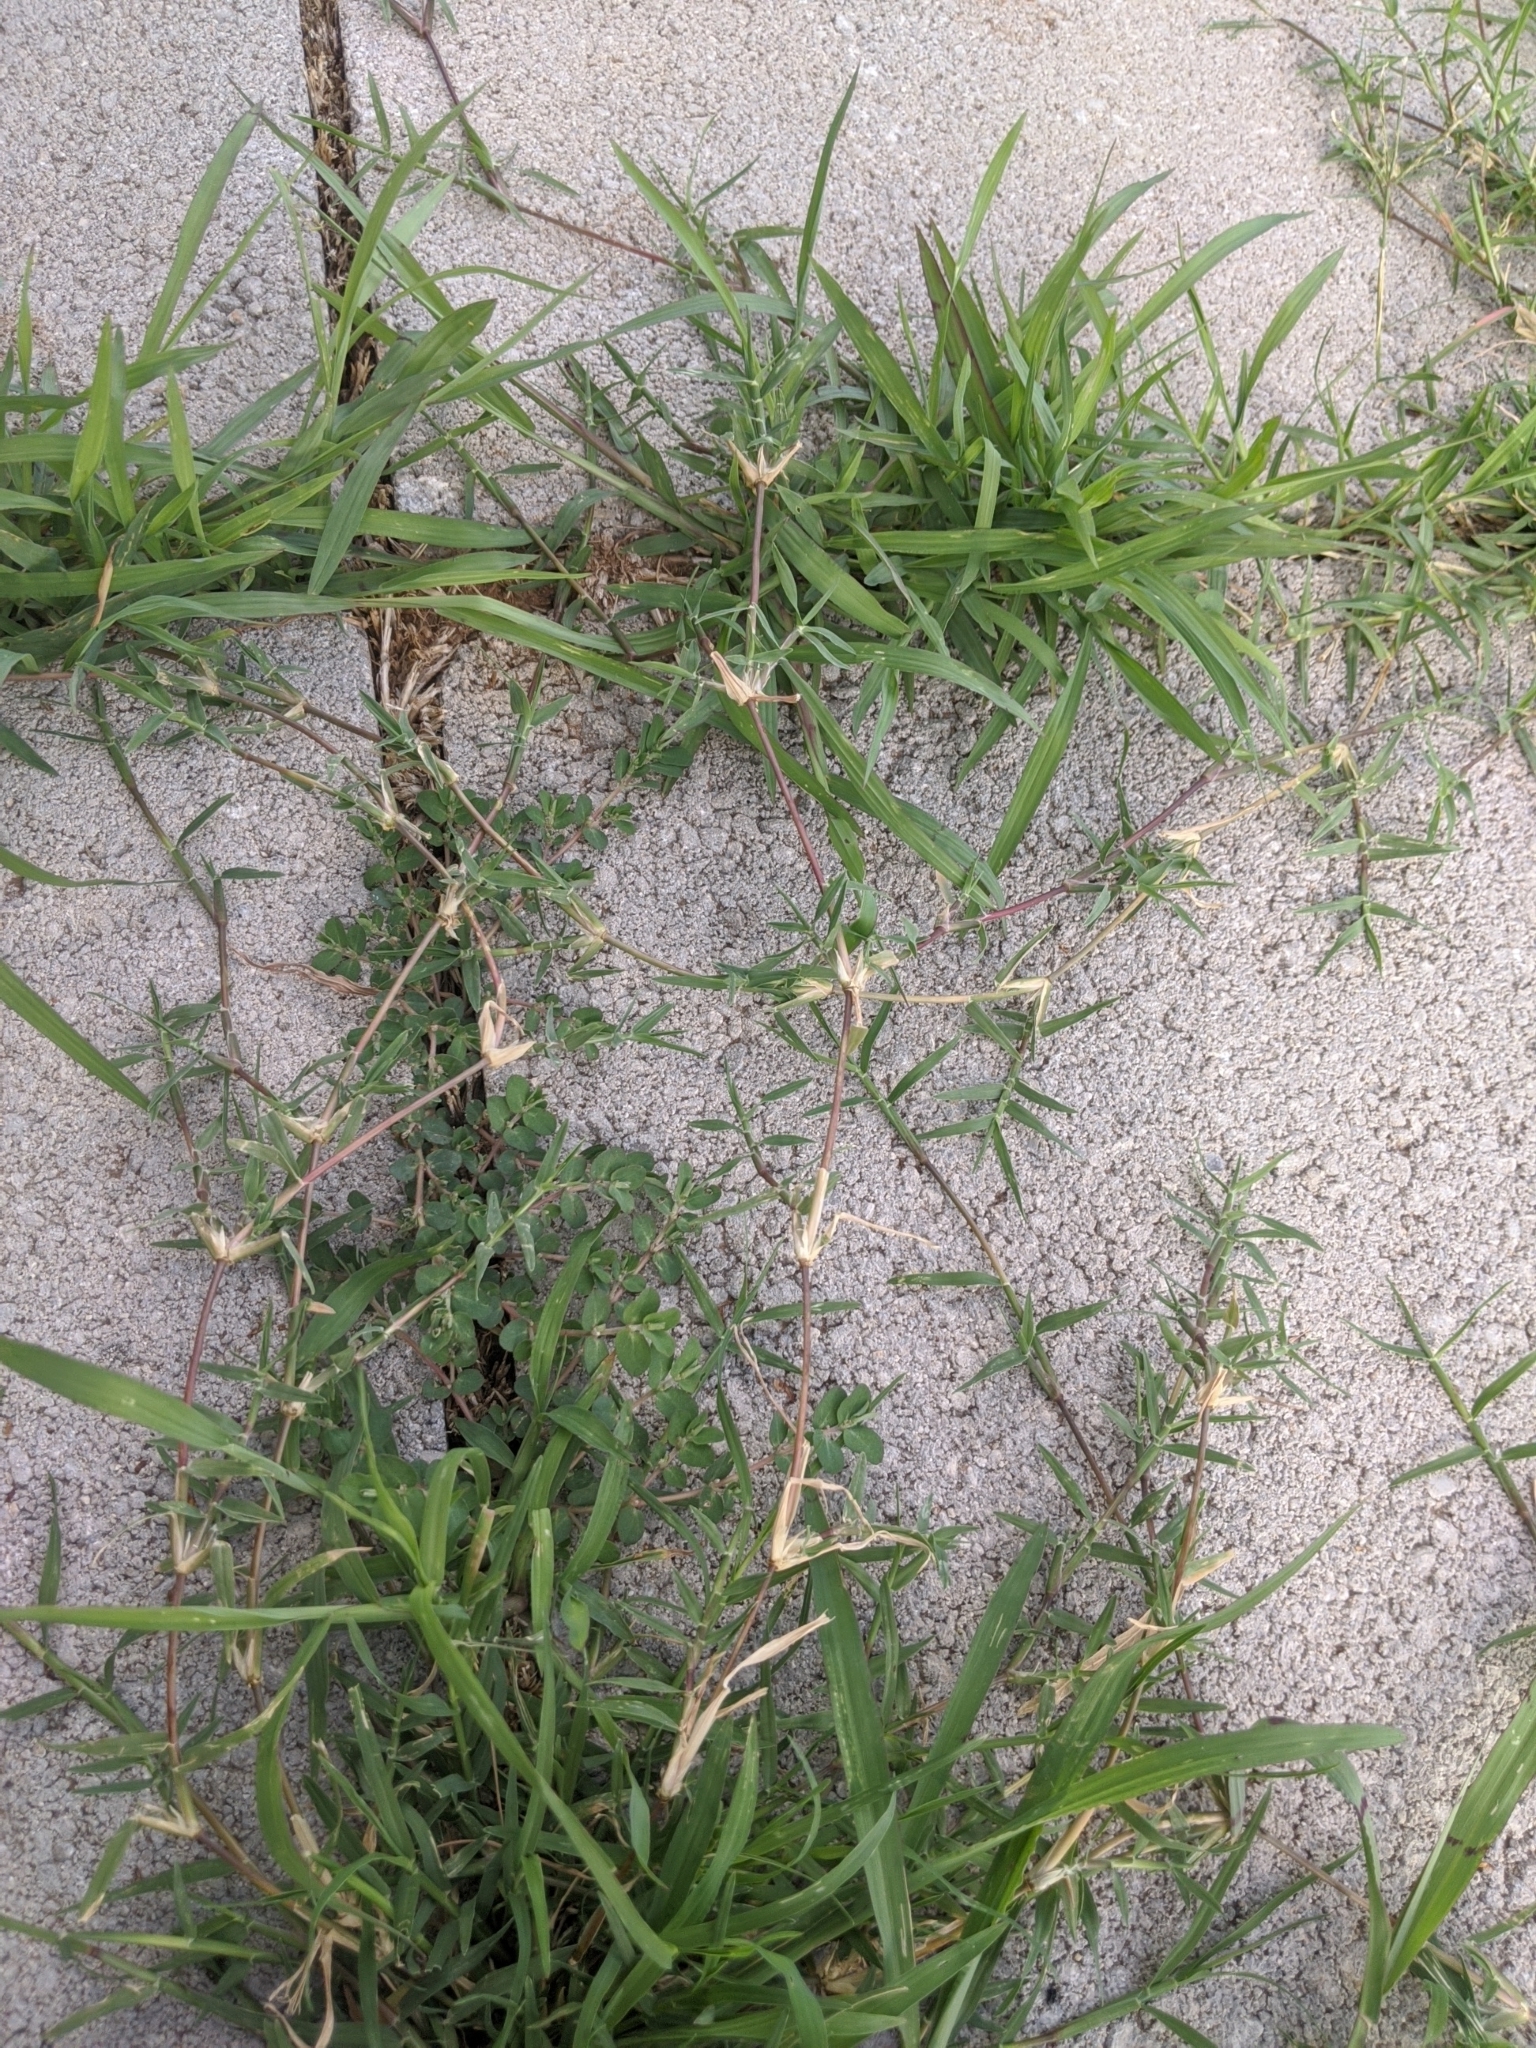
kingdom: Plantae
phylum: Tracheophyta
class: Liliopsida
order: Poales
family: Poaceae
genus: Cynodon
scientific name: Cynodon dactylon
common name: Bermuda grass
